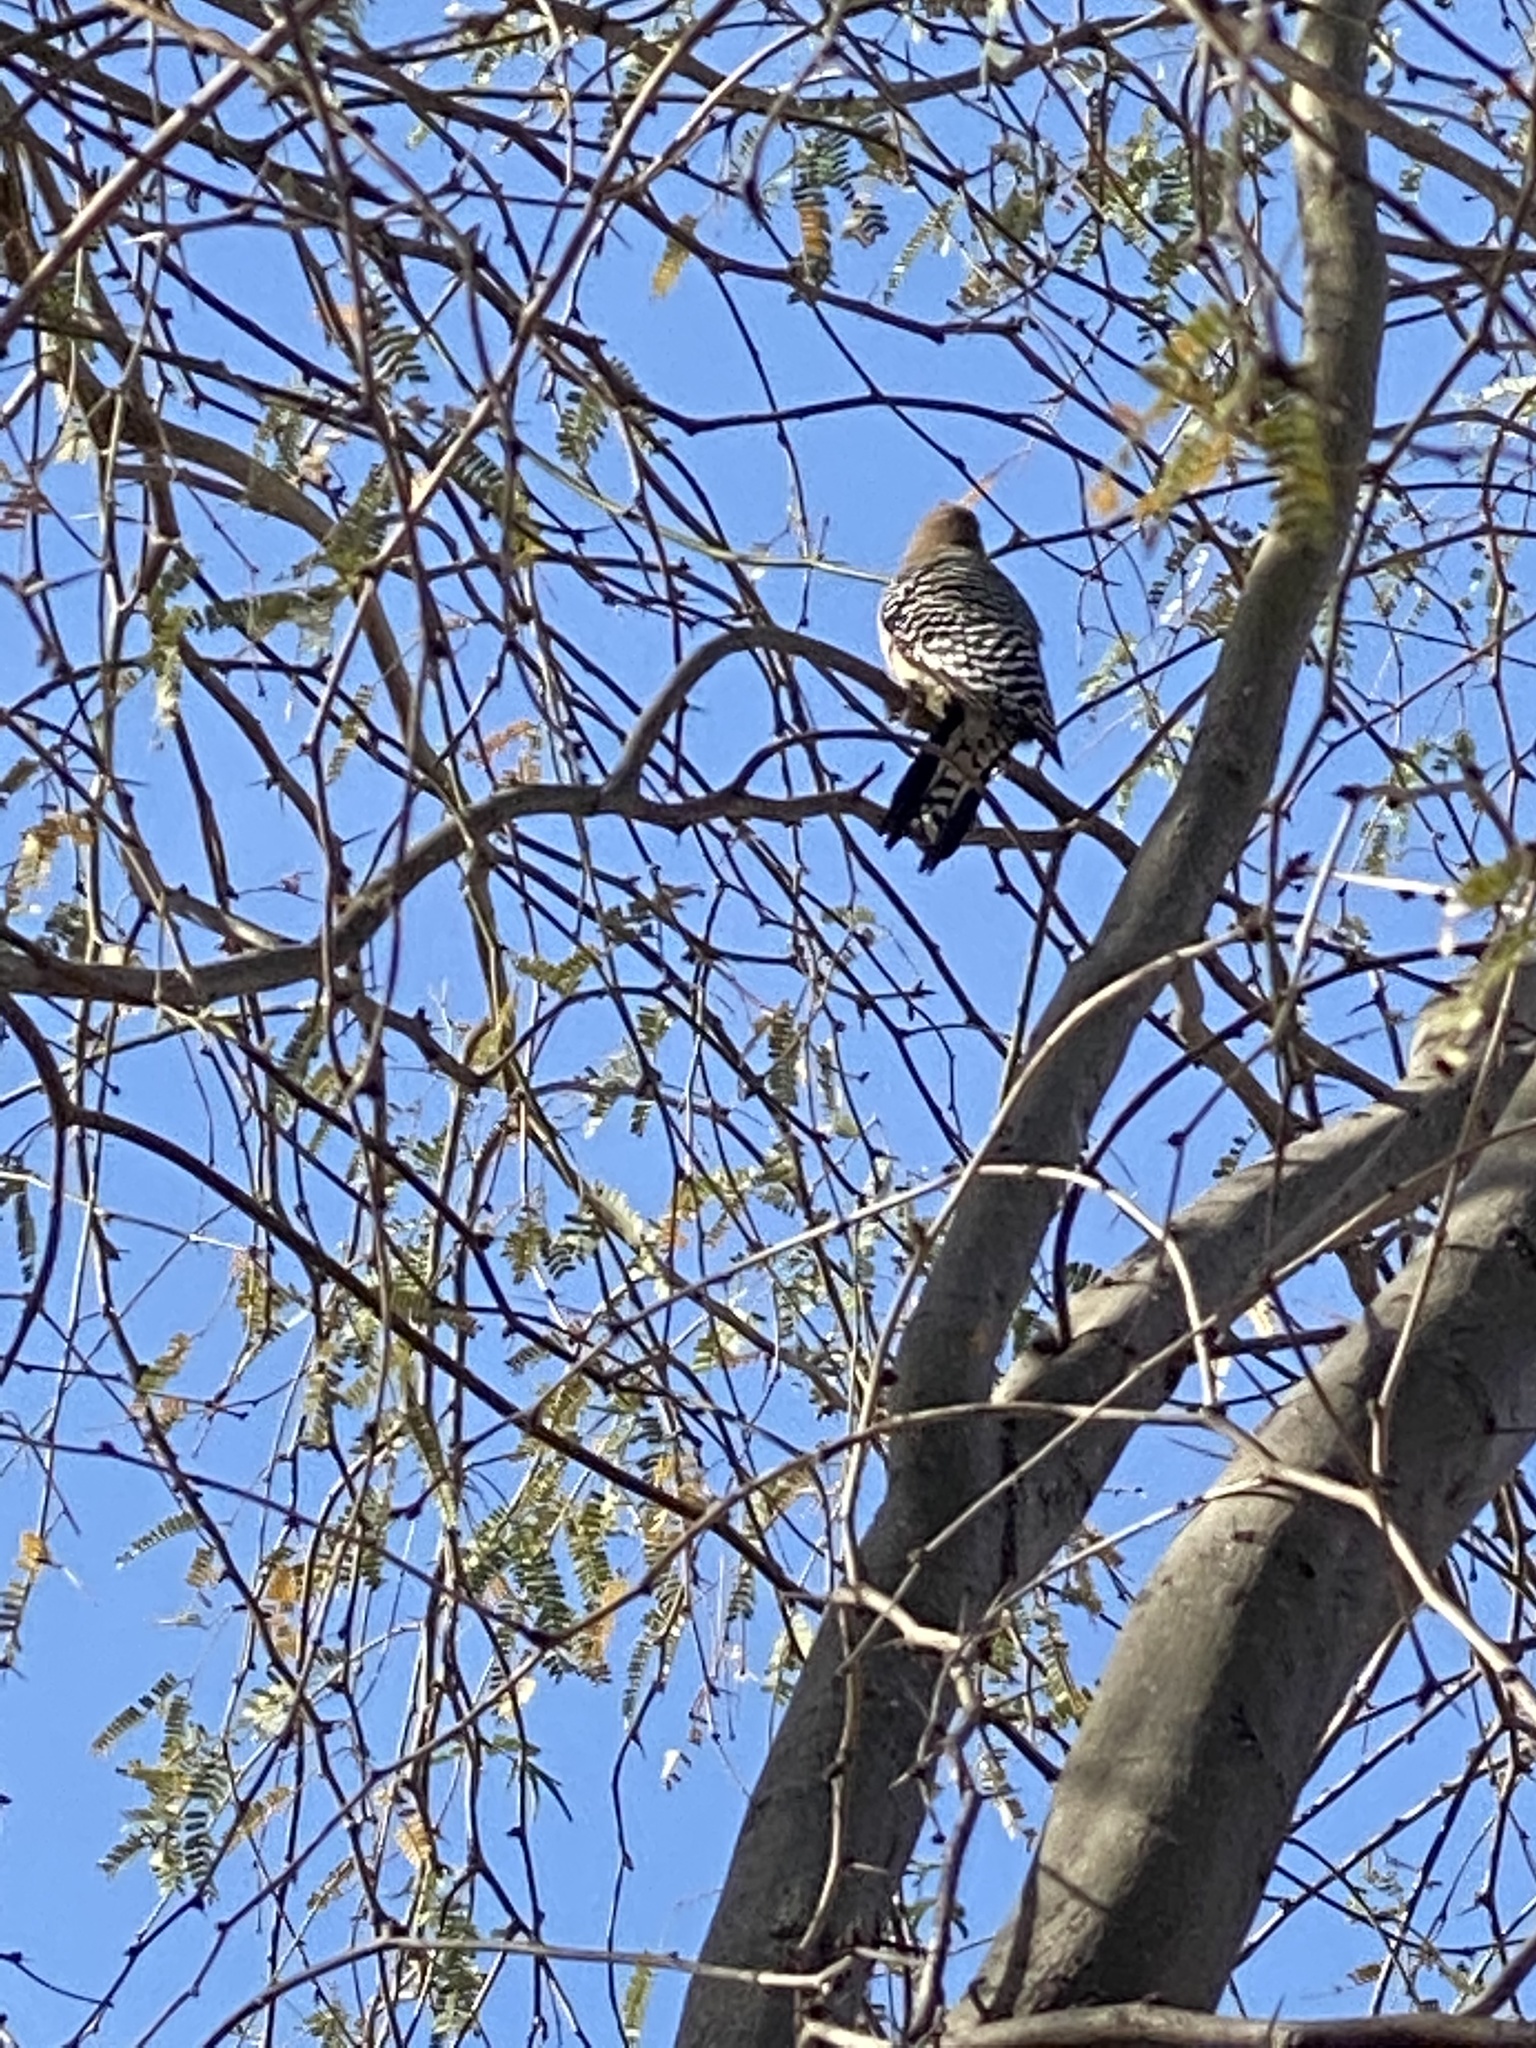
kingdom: Animalia
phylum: Chordata
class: Aves
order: Piciformes
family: Picidae
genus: Melanerpes
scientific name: Melanerpes uropygialis
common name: Gila woodpecker
